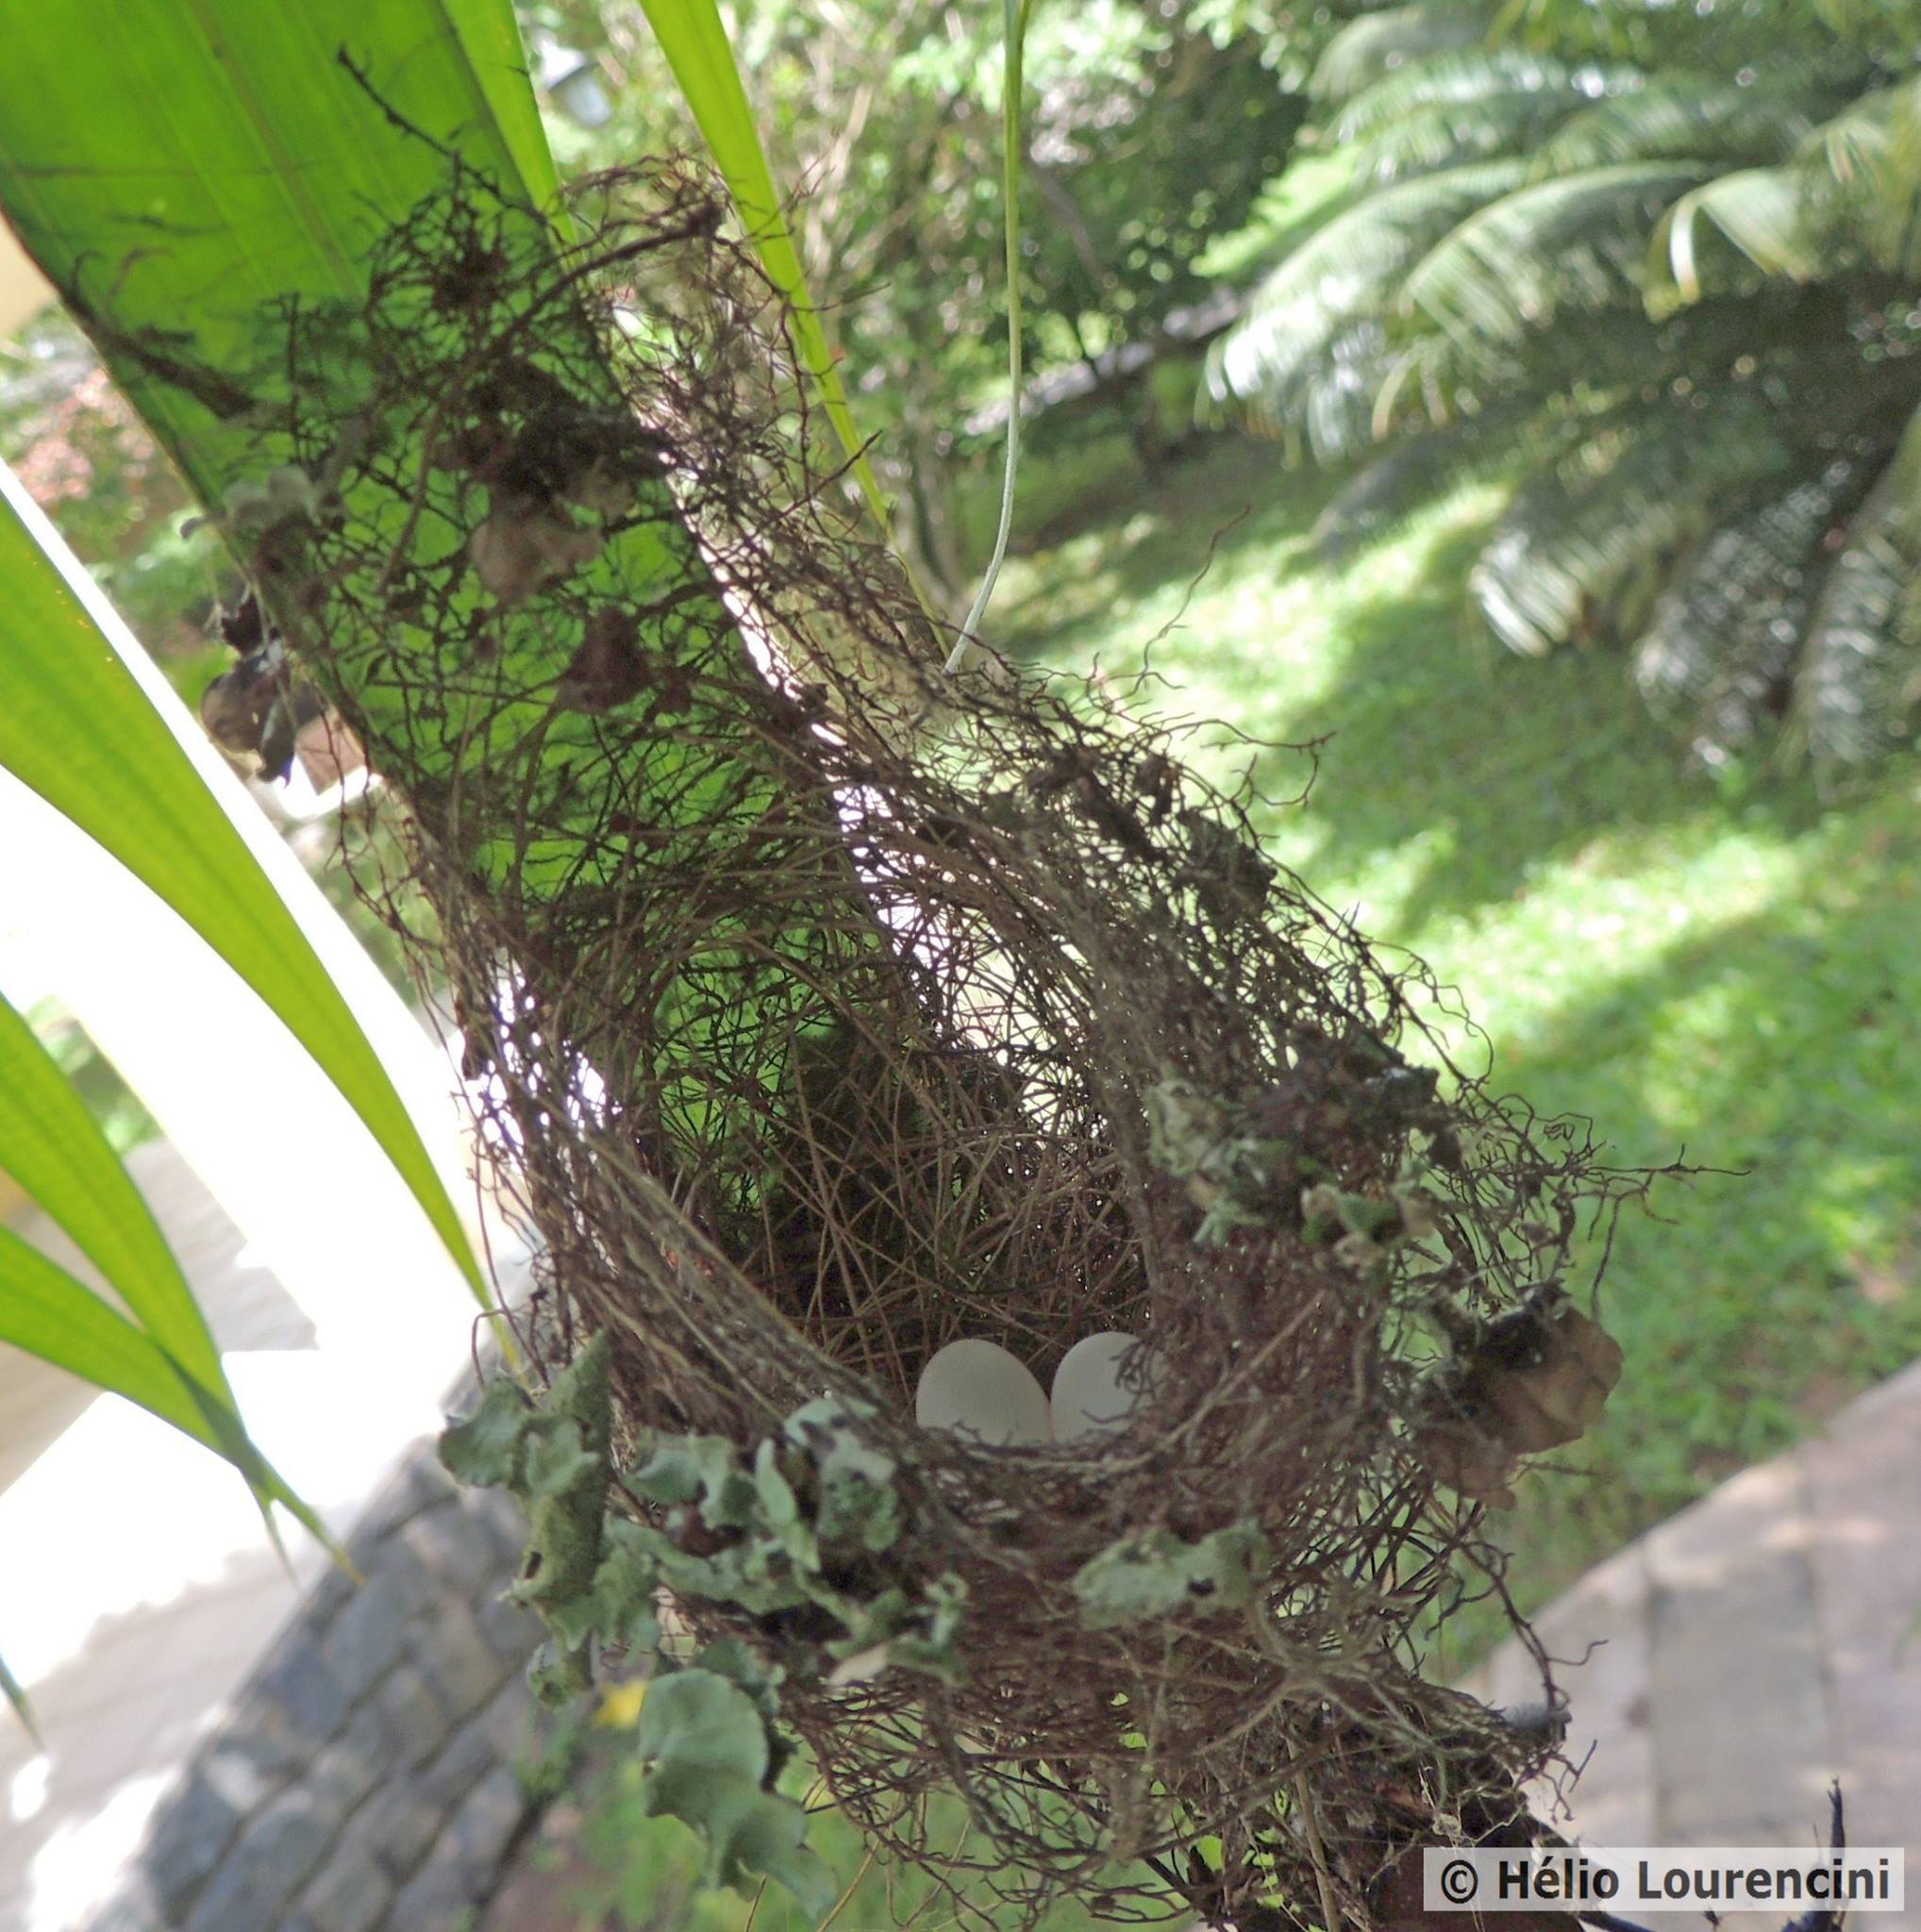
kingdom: Animalia
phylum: Chordata
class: Aves
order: Apodiformes
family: Trochilidae
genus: Glaucis
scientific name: Glaucis hirsutus
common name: Rufous-breasted hermit
